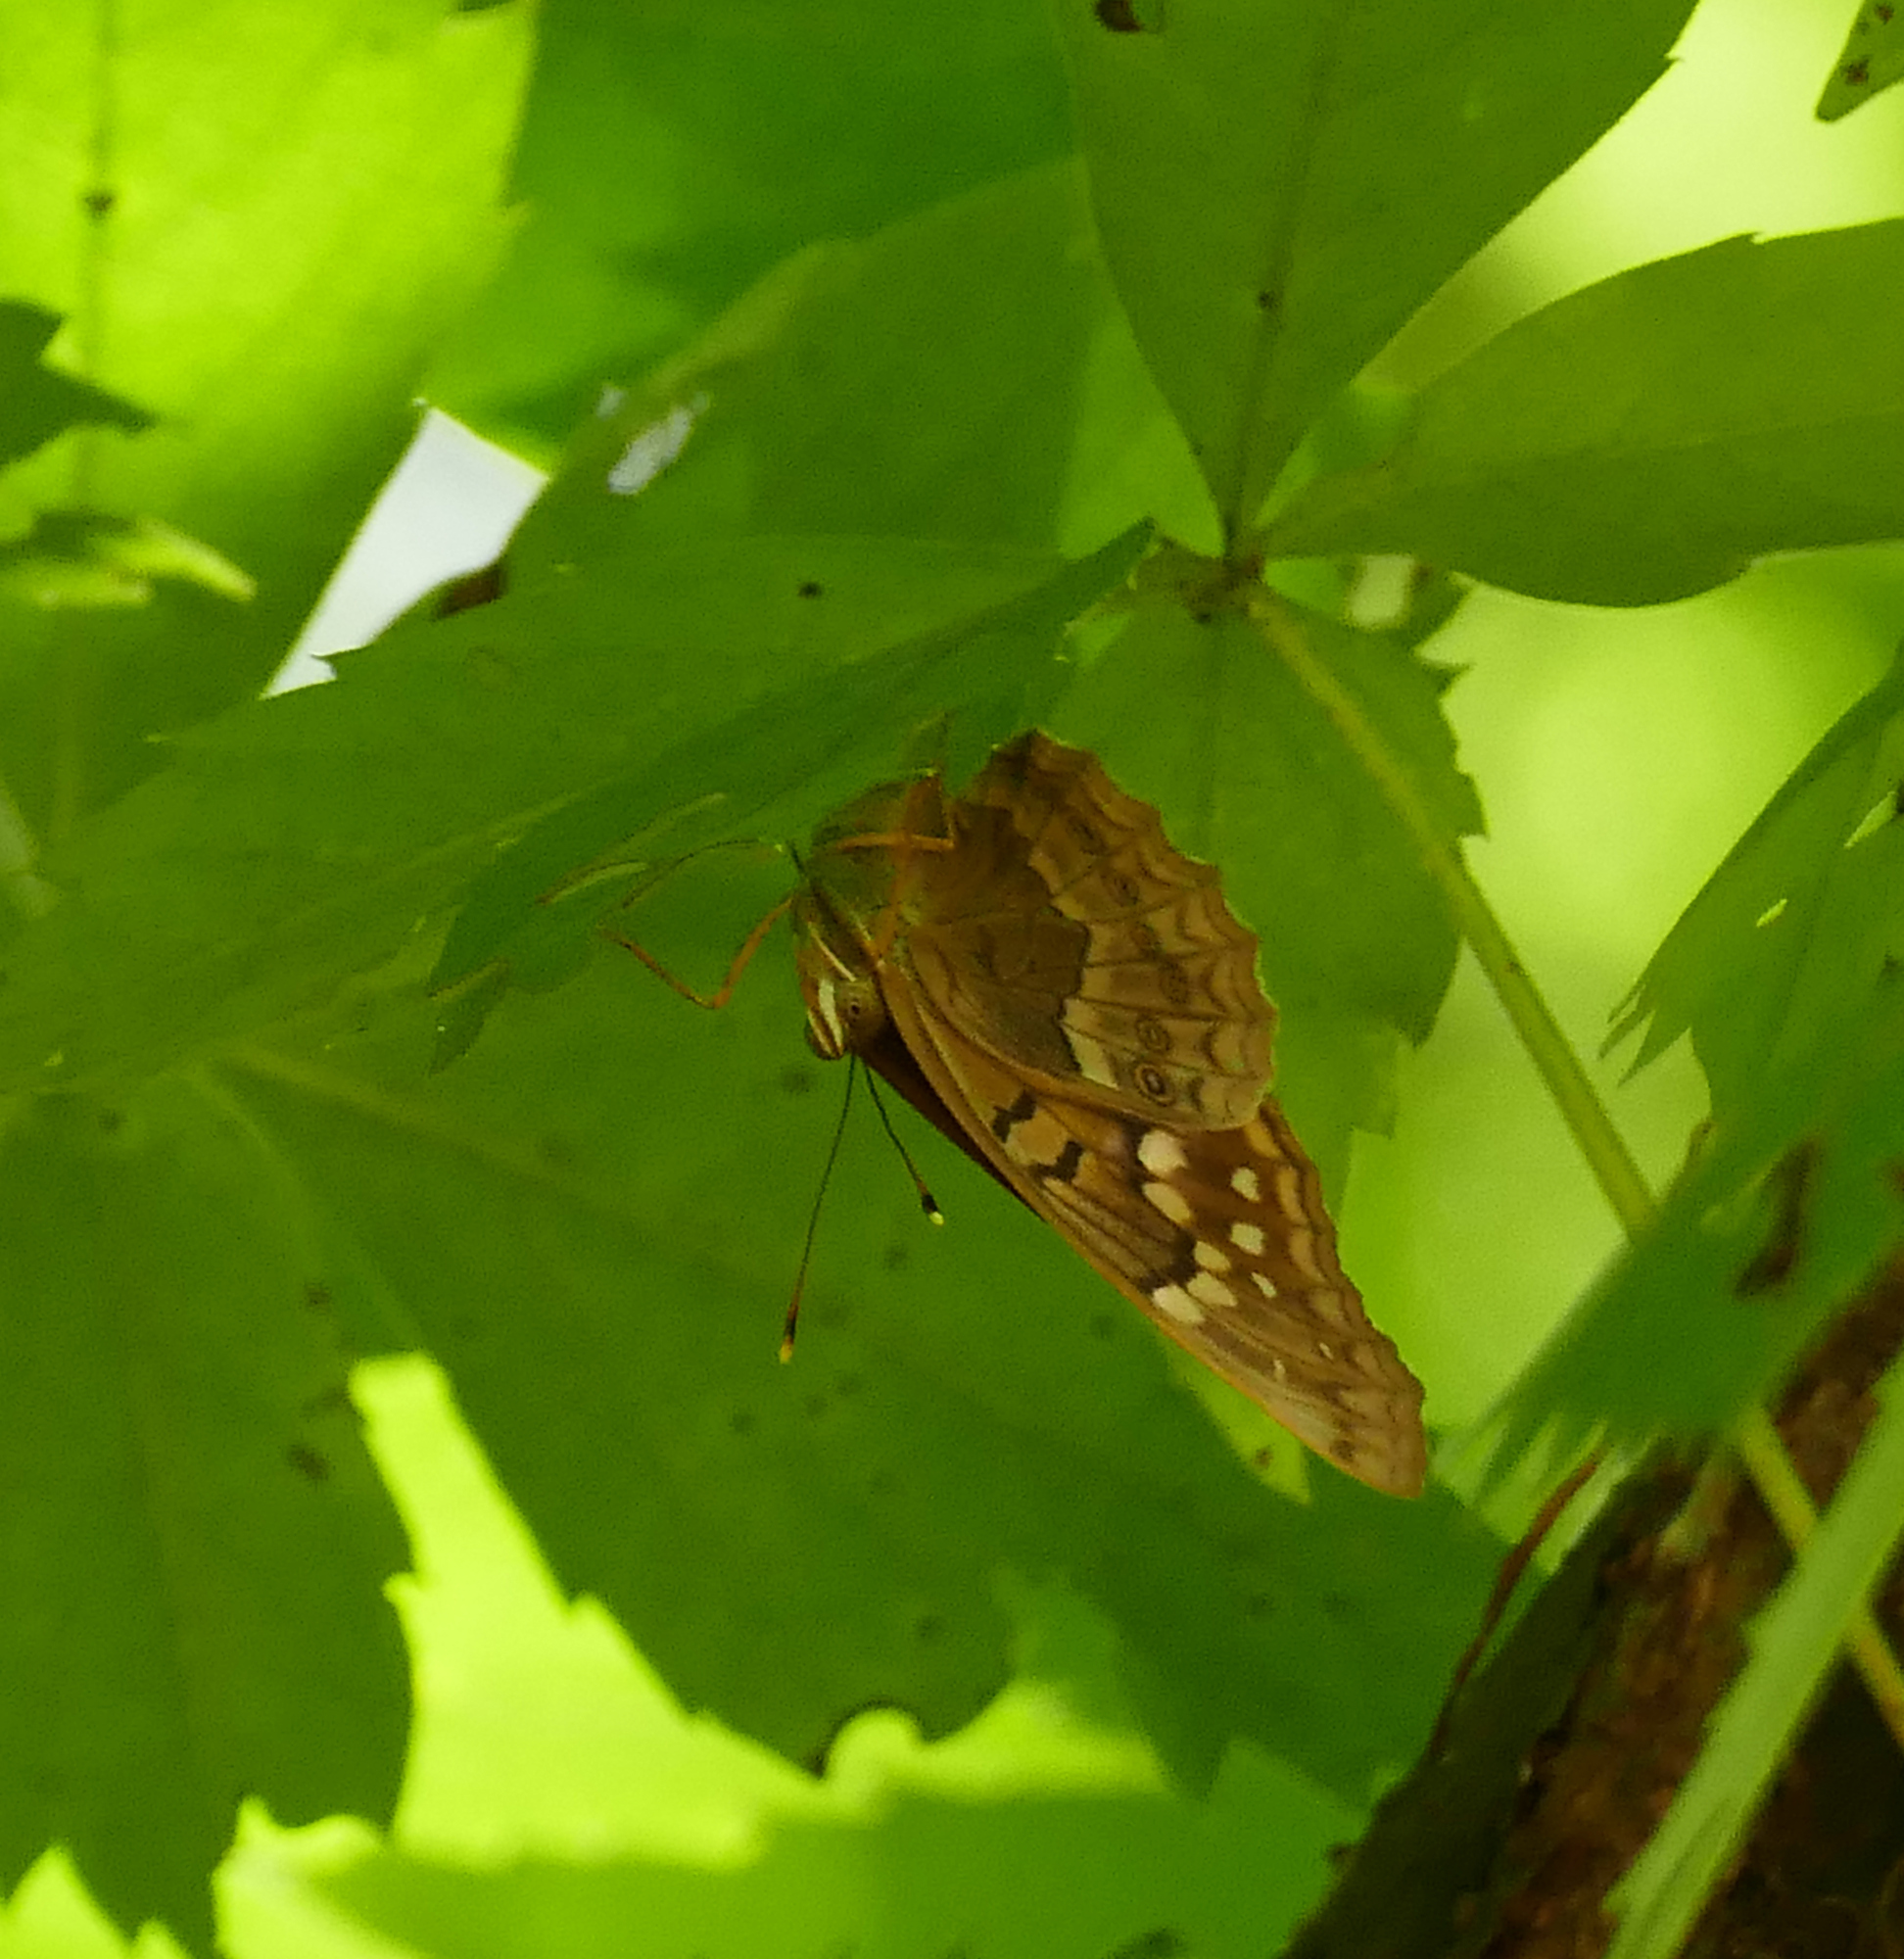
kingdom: Animalia
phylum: Arthropoda
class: Insecta
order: Lepidoptera
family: Nymphalidae
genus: Asterocampa
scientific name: Asterocampa clyton
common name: Tawny emperor
